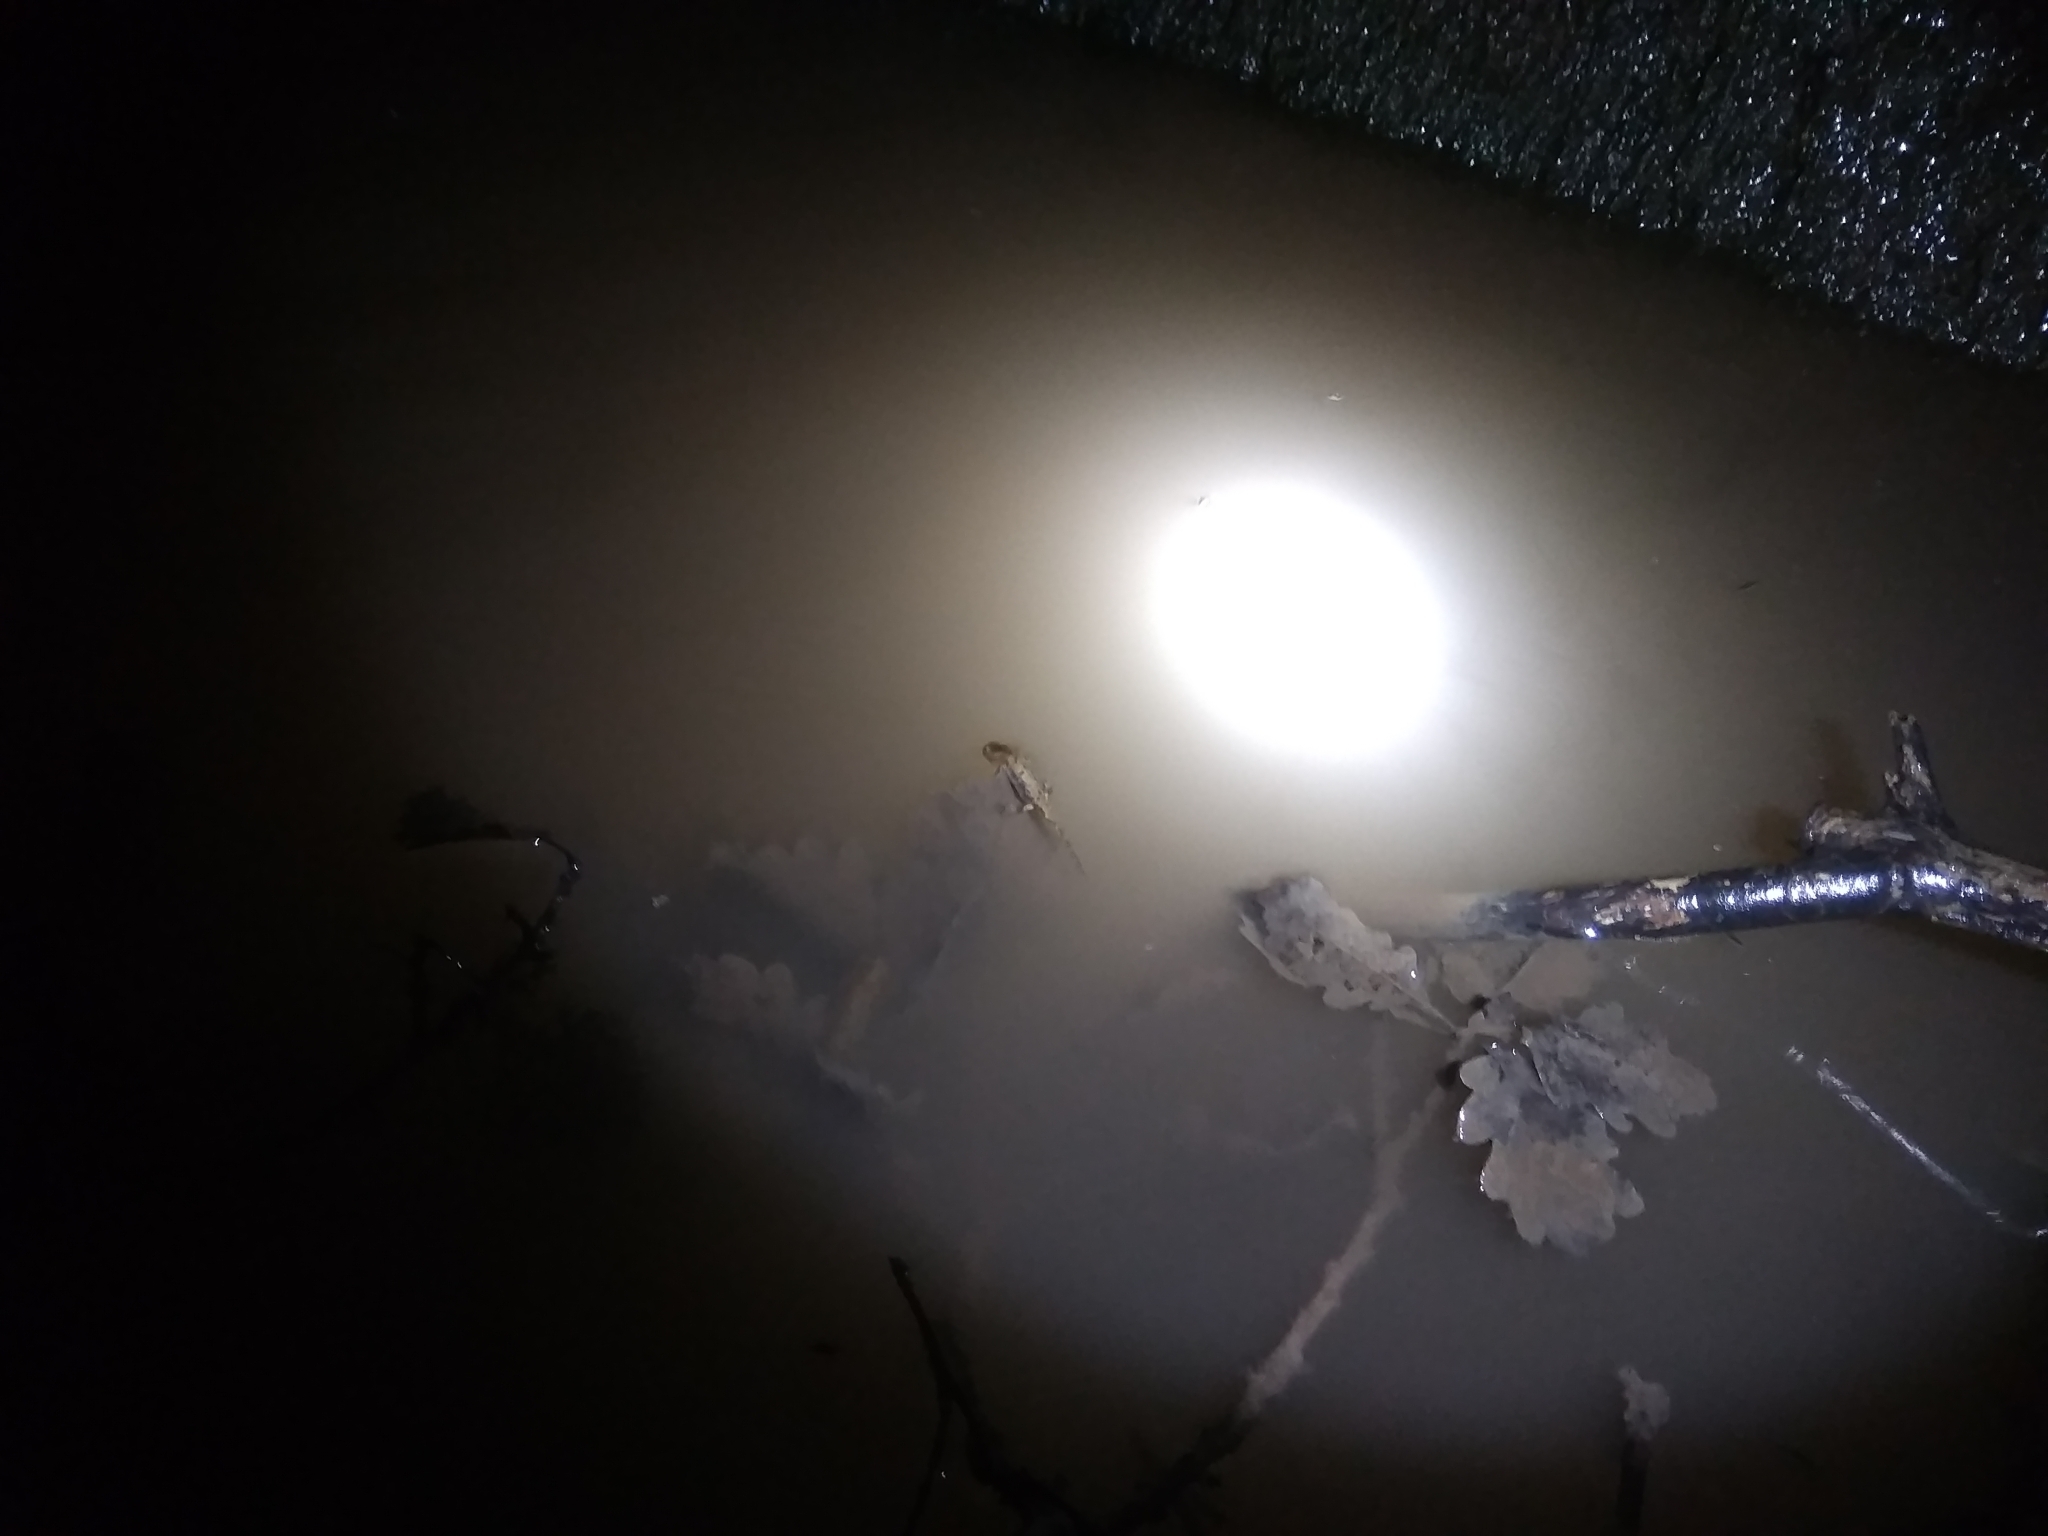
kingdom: Animalia
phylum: Chordata
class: Amphibia
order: Caudata
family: Salamandridae
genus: Salamandra
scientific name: Salamandra salamandra
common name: Fire salamander
